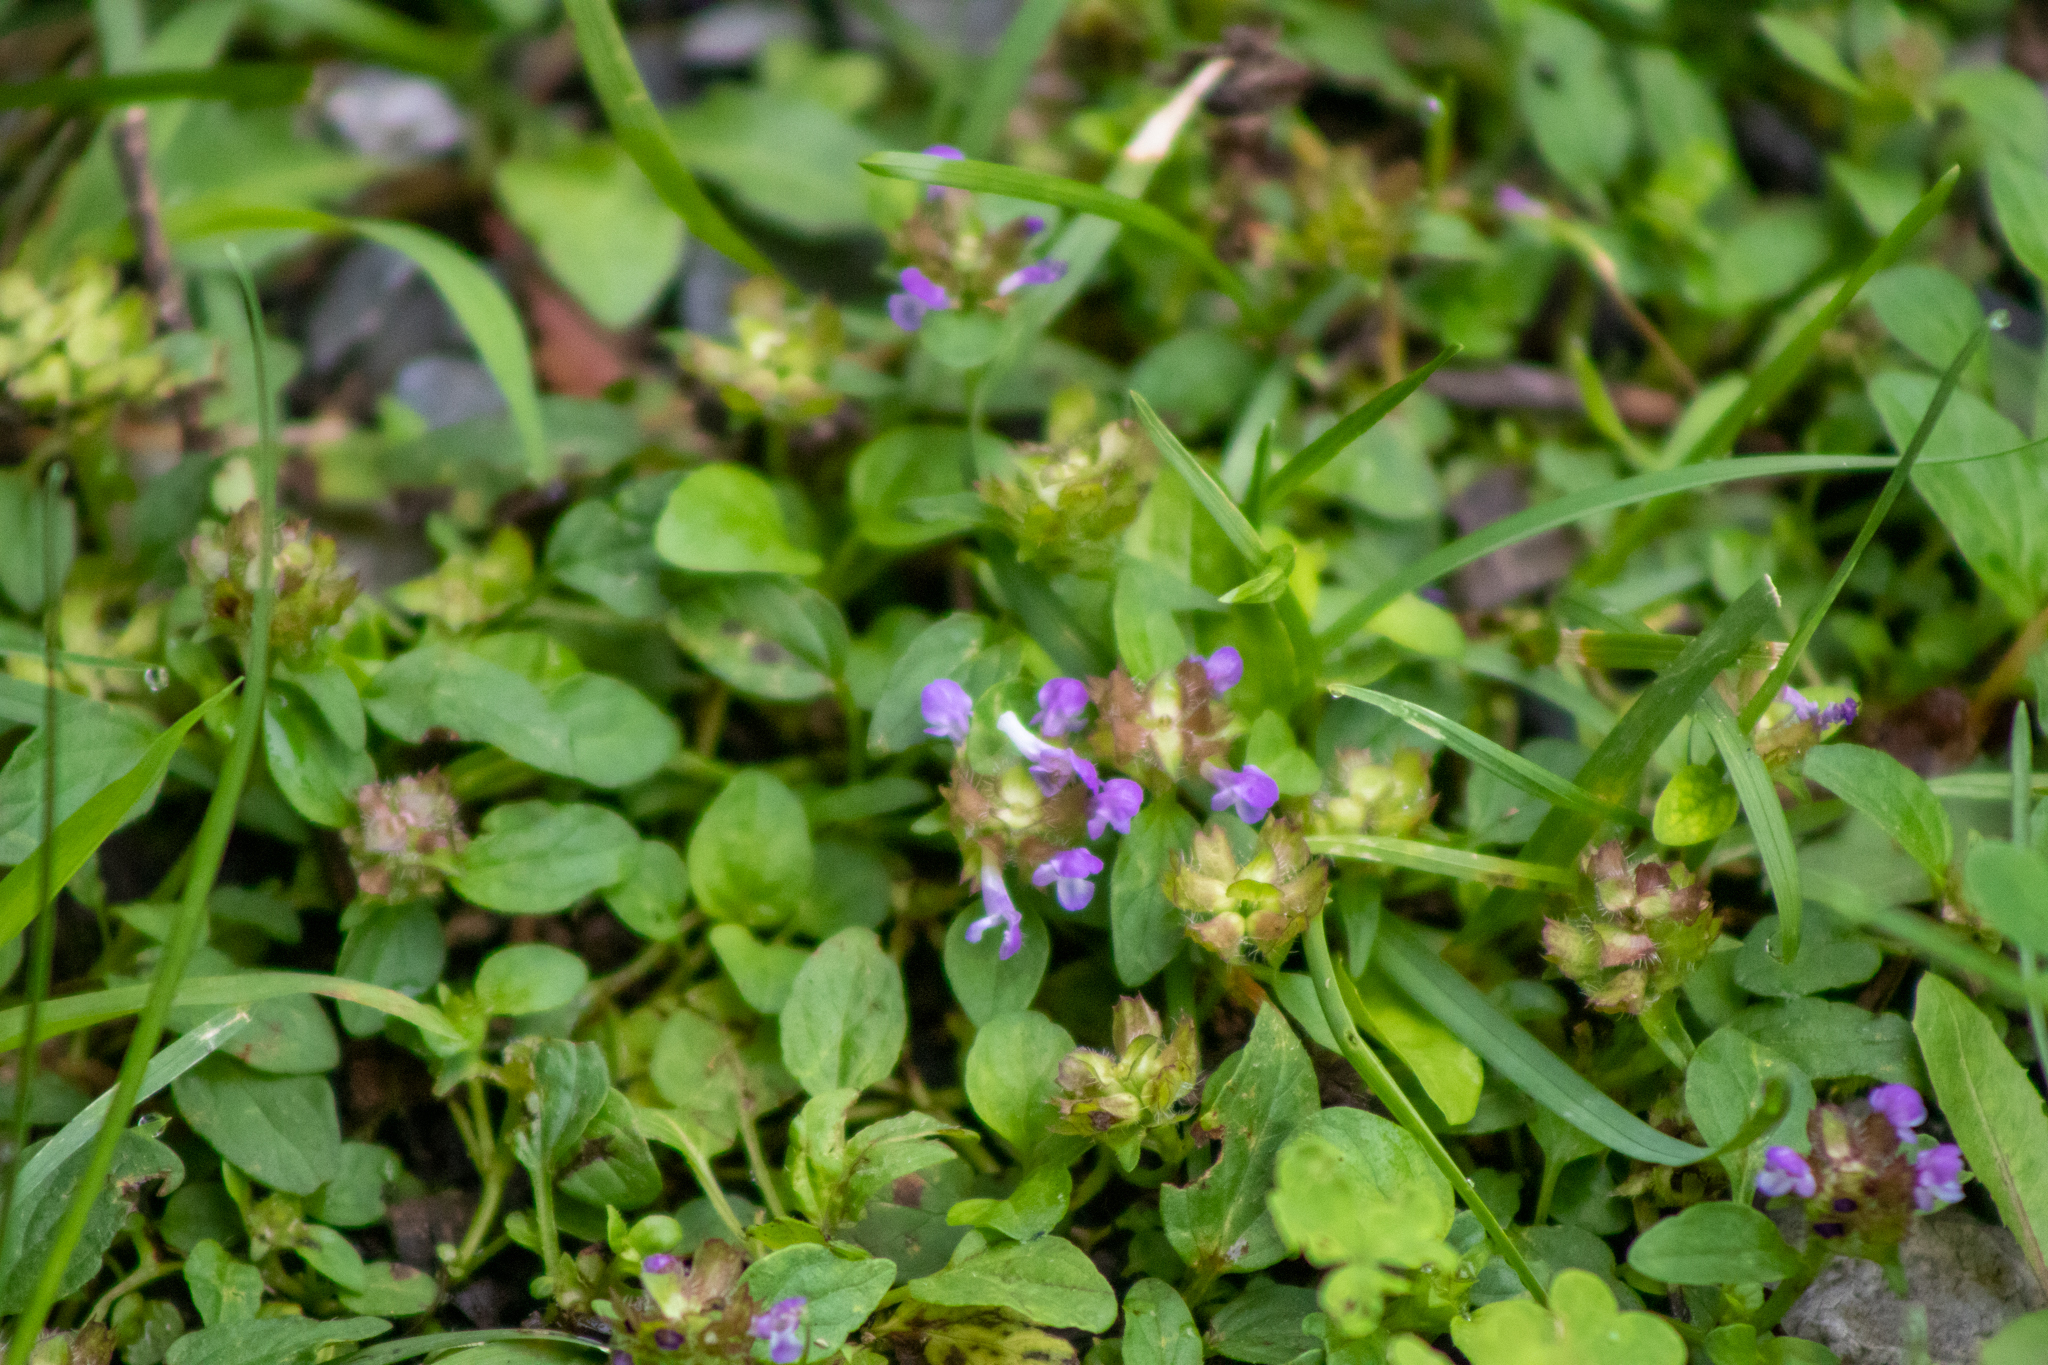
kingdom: Plantae
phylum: Tracheophyta
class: Magnoliopsida
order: Lamiales
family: Lamiaceae
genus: Prunella
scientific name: Prunella vulgaris
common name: Heal-all
